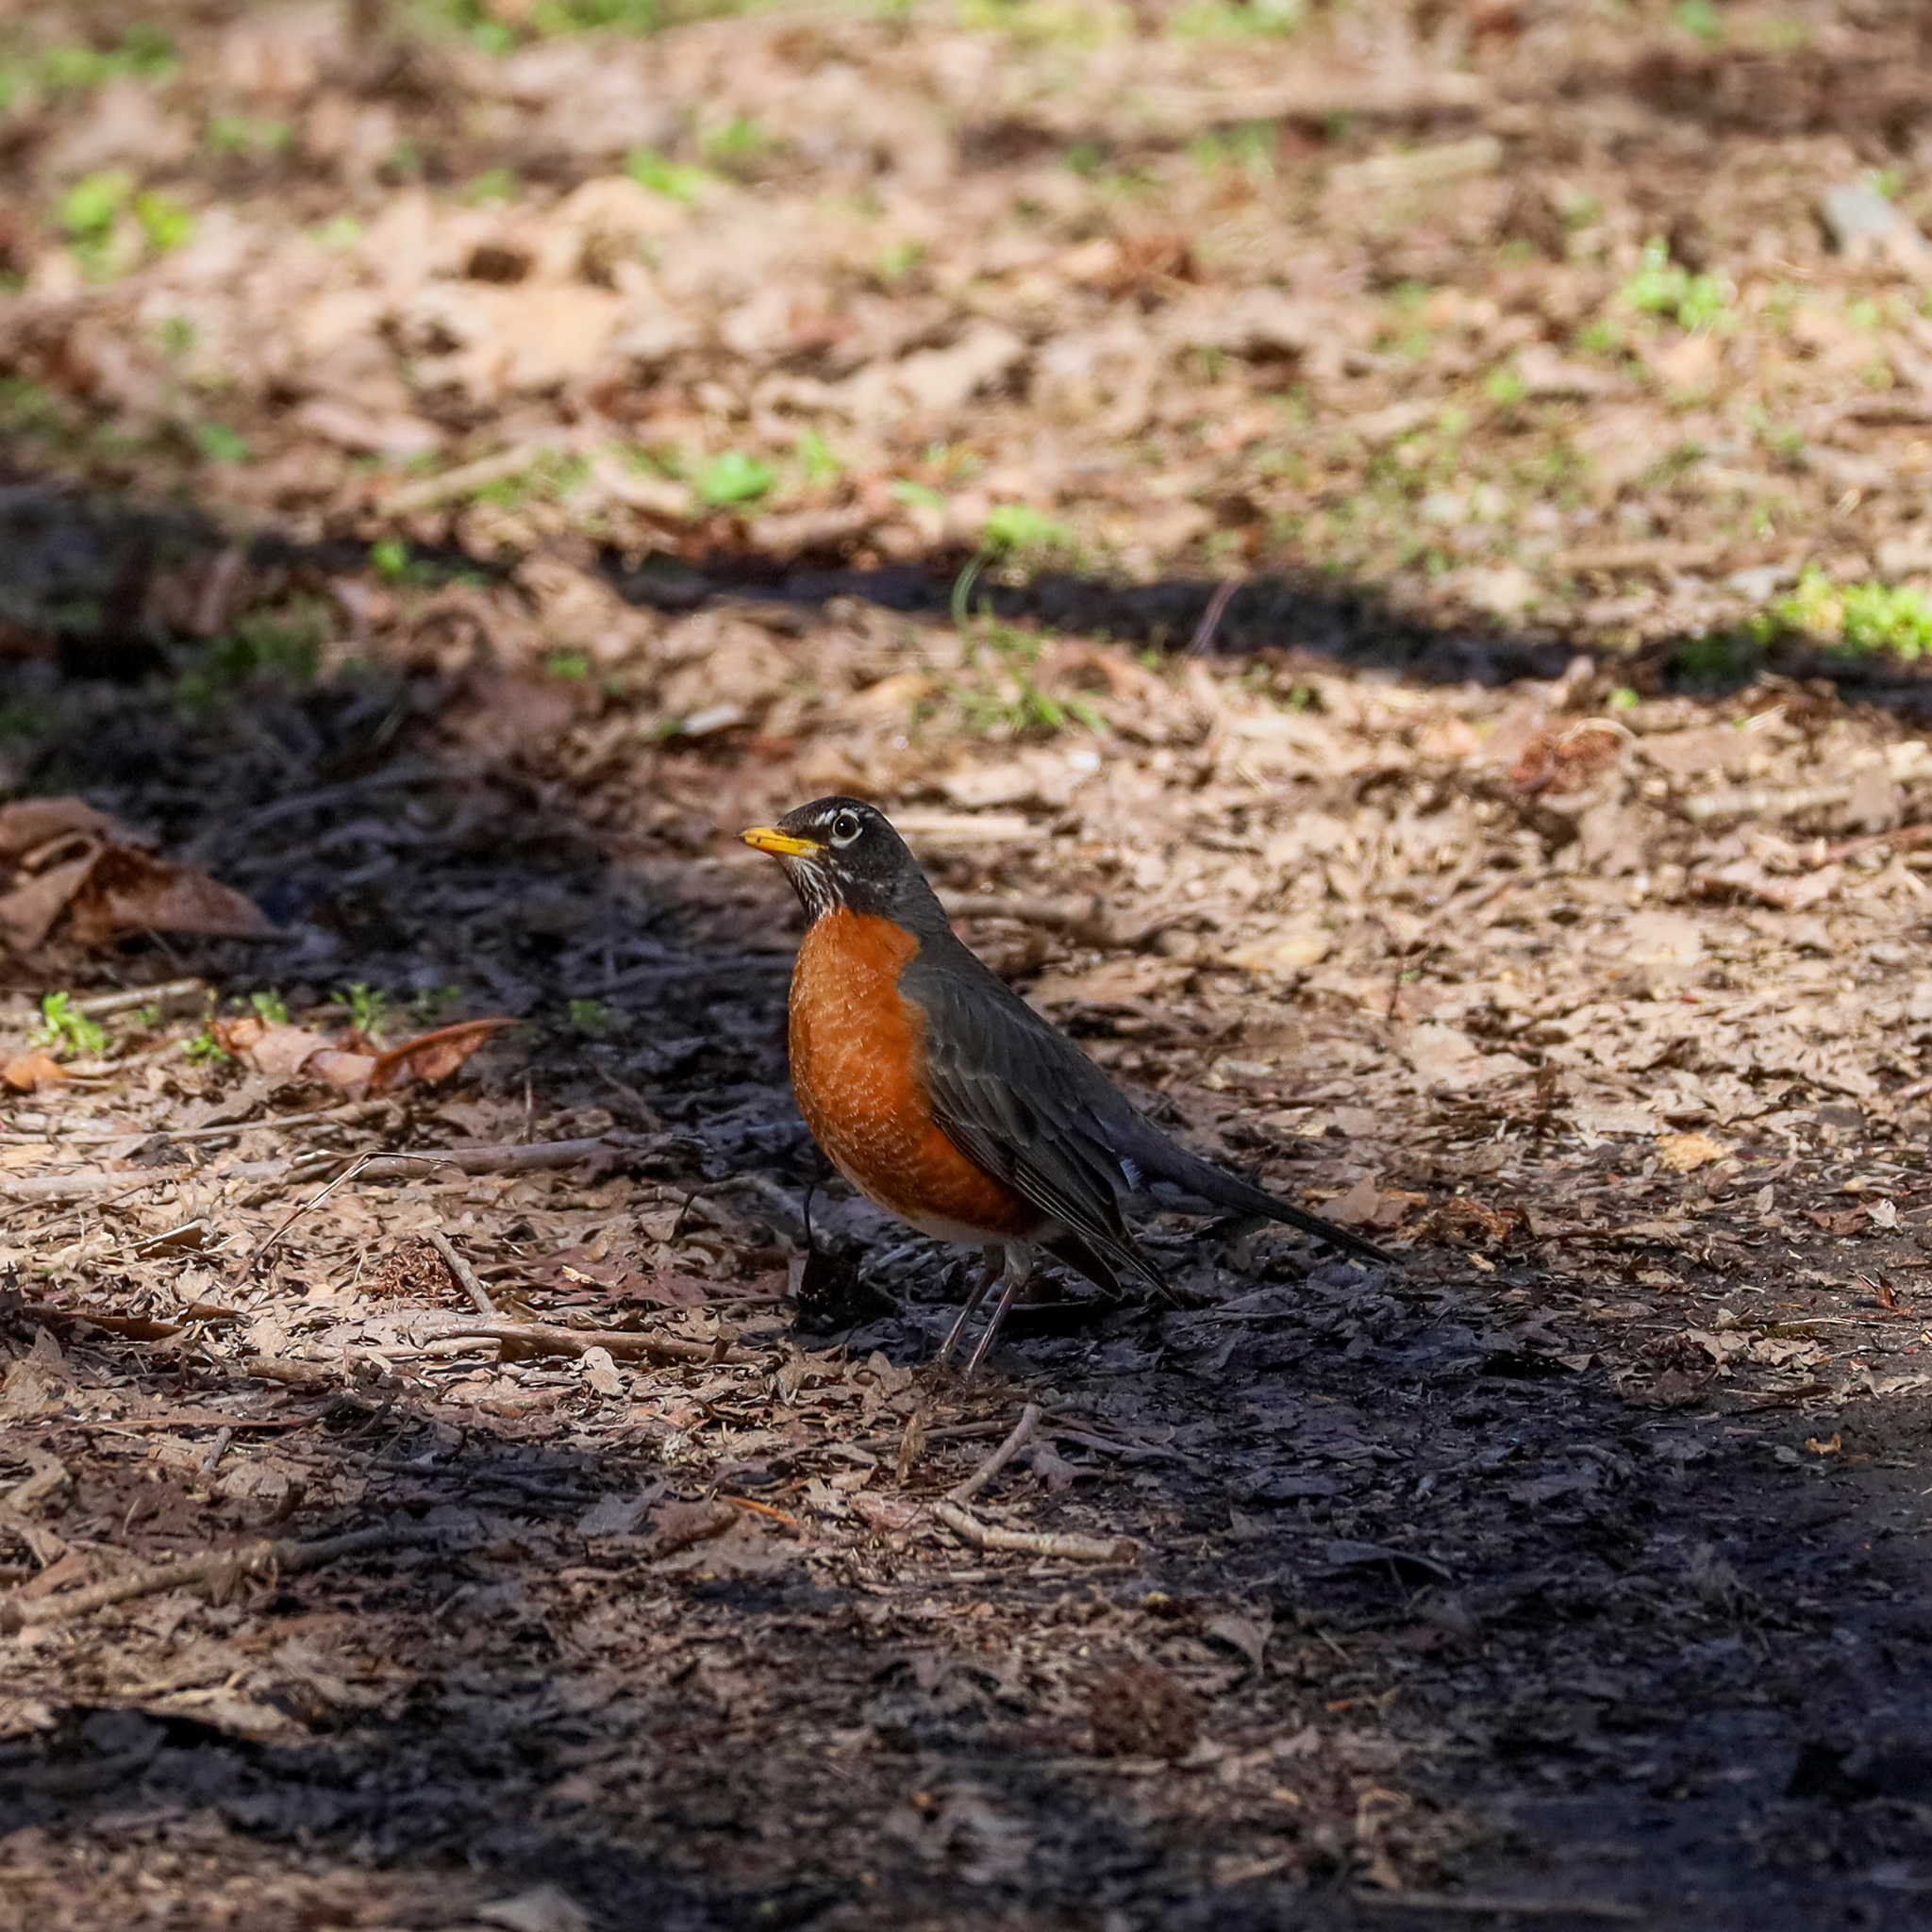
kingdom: Animalia
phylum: Chordata
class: Aves
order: Passeriformes
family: Turdidae
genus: Turdus
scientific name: Turdus migratorius
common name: American robin
